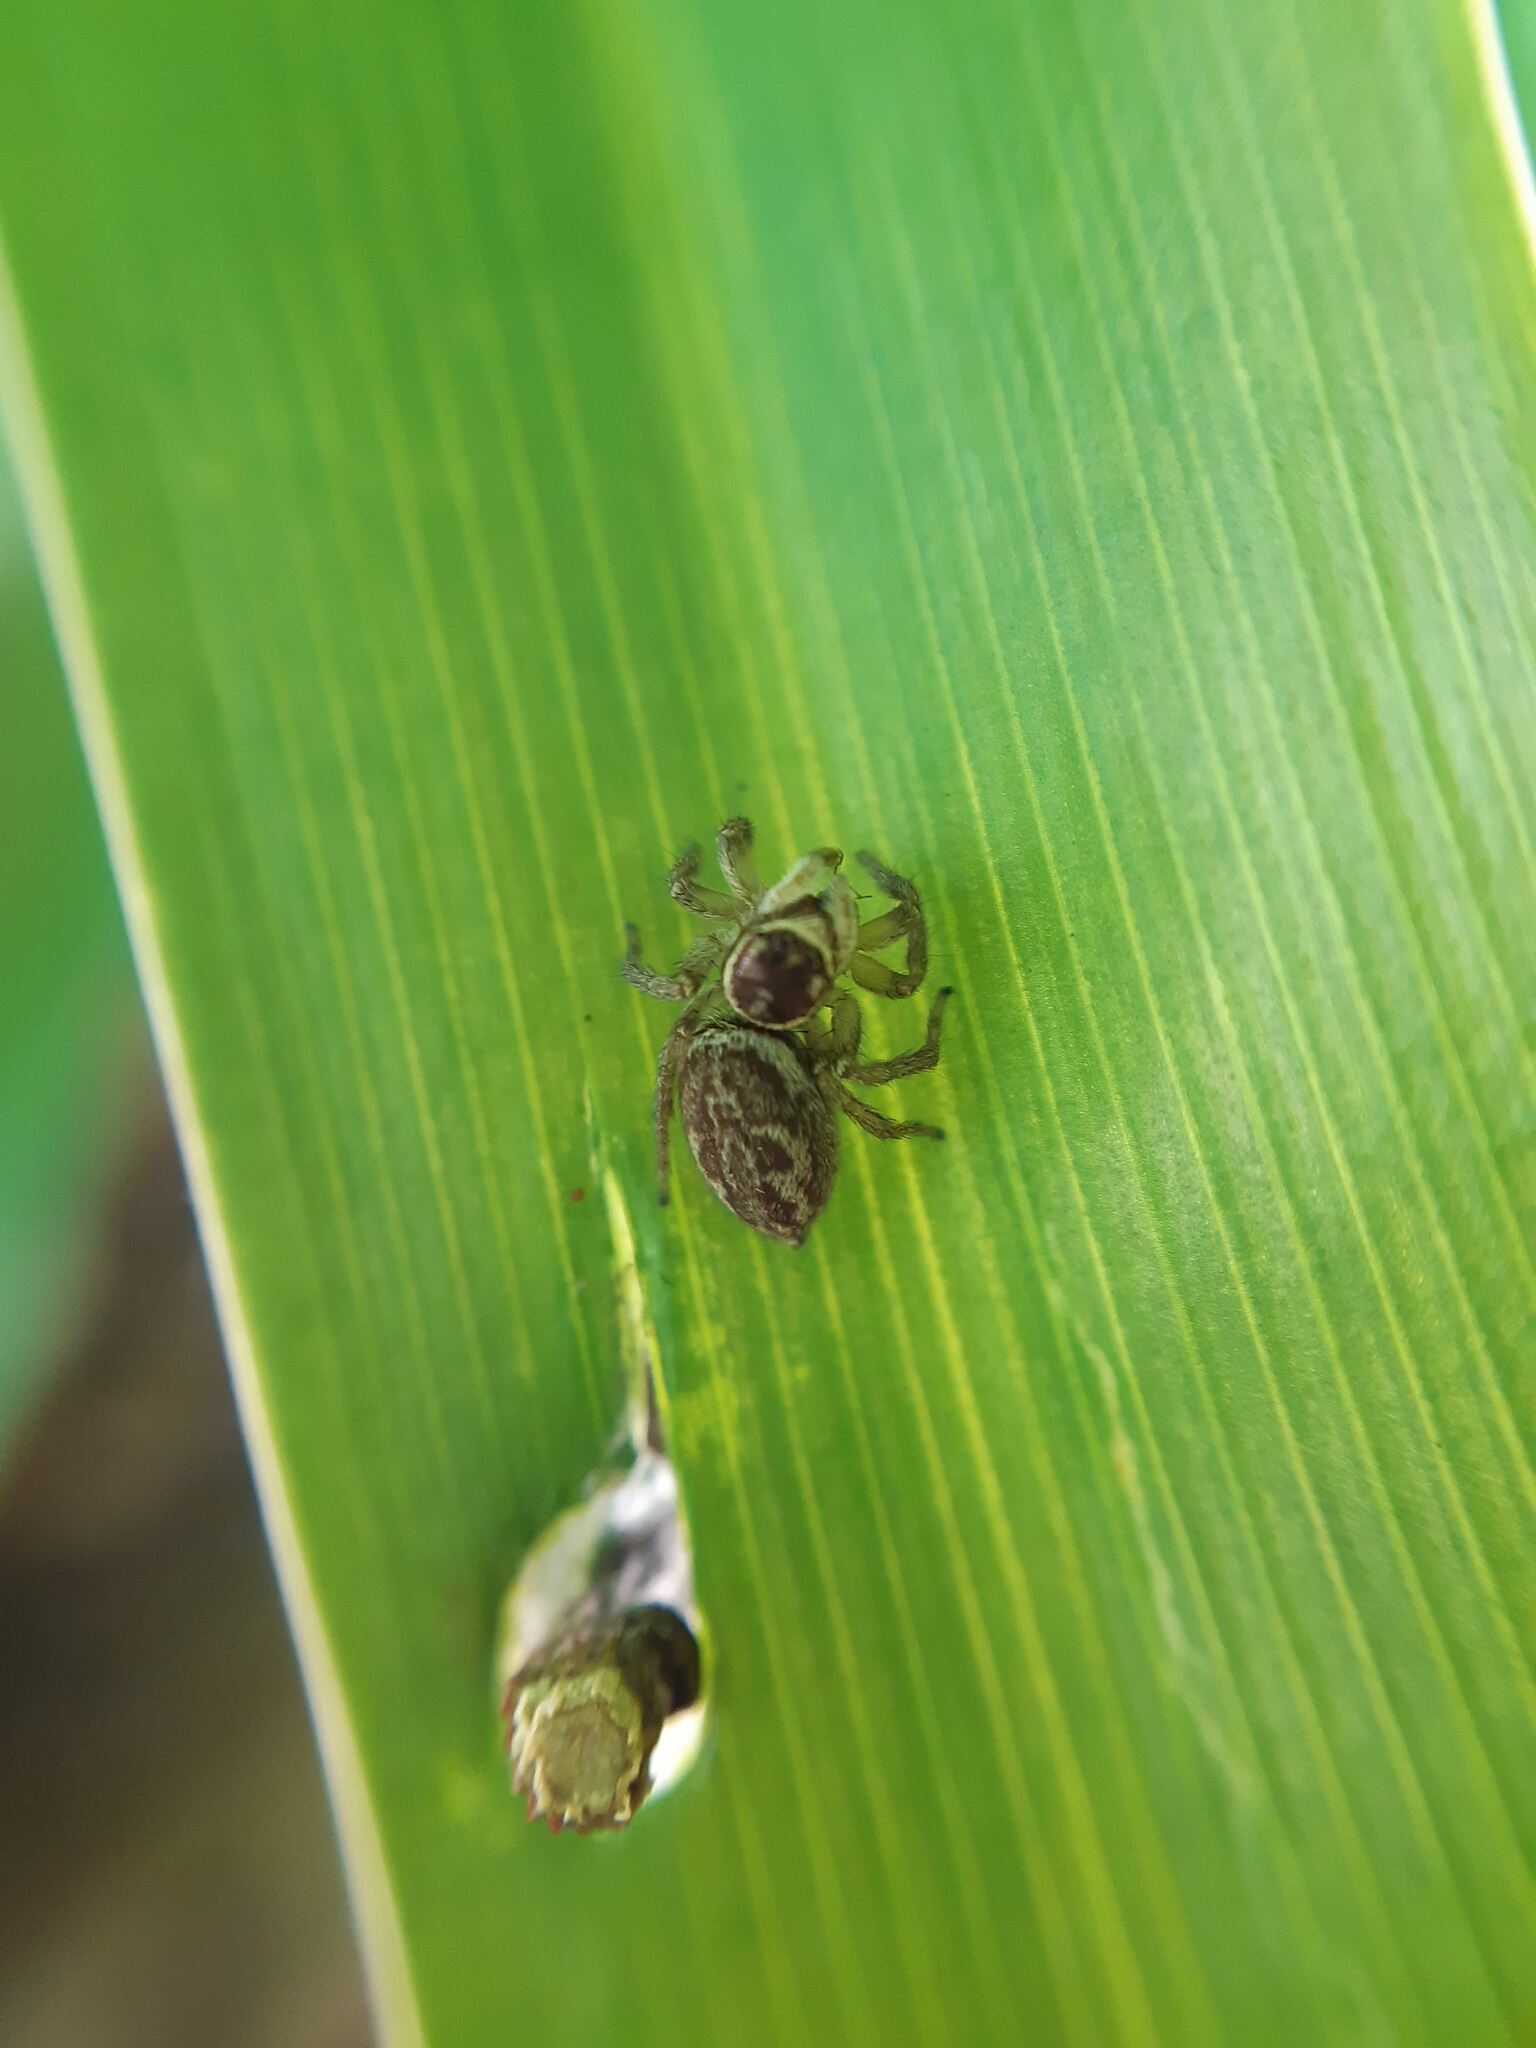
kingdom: Animalia
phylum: Arthropoda
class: Arachnida
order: Araneae
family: Salticidae
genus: Maratus
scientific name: Maratus griseus
